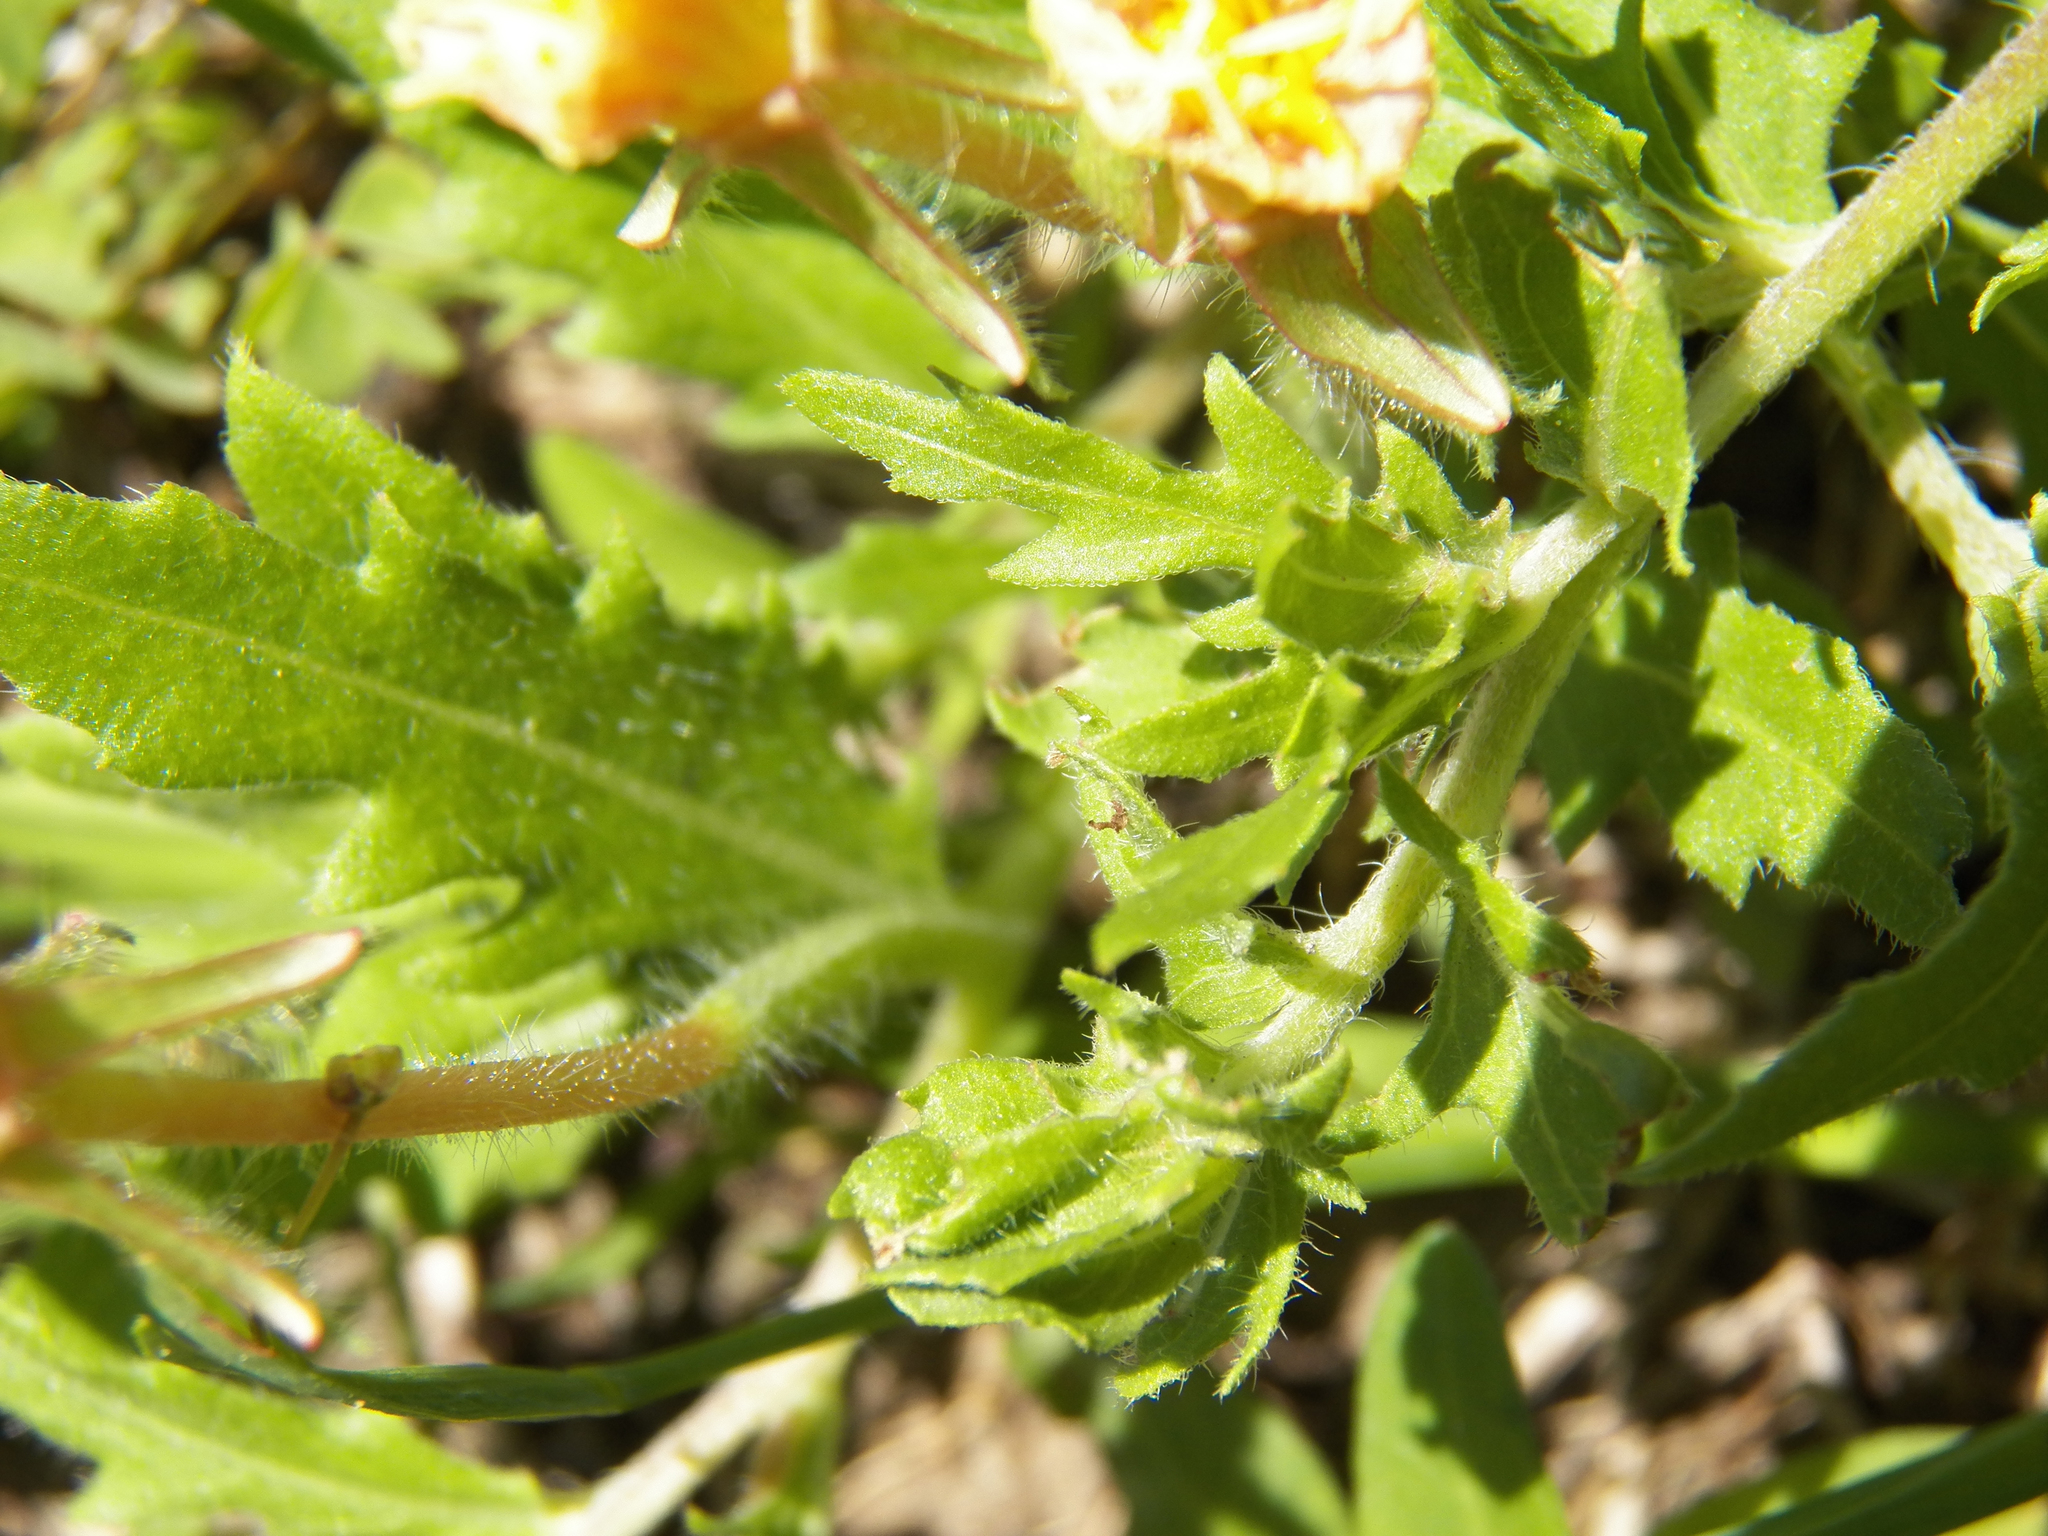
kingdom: Plantae
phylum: Tracheophyta
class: Magnoliopsida
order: Myrtales
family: Onagraceae
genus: Oenothera
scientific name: Oenothera laciniata
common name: Cut-leaved evening-primrose
